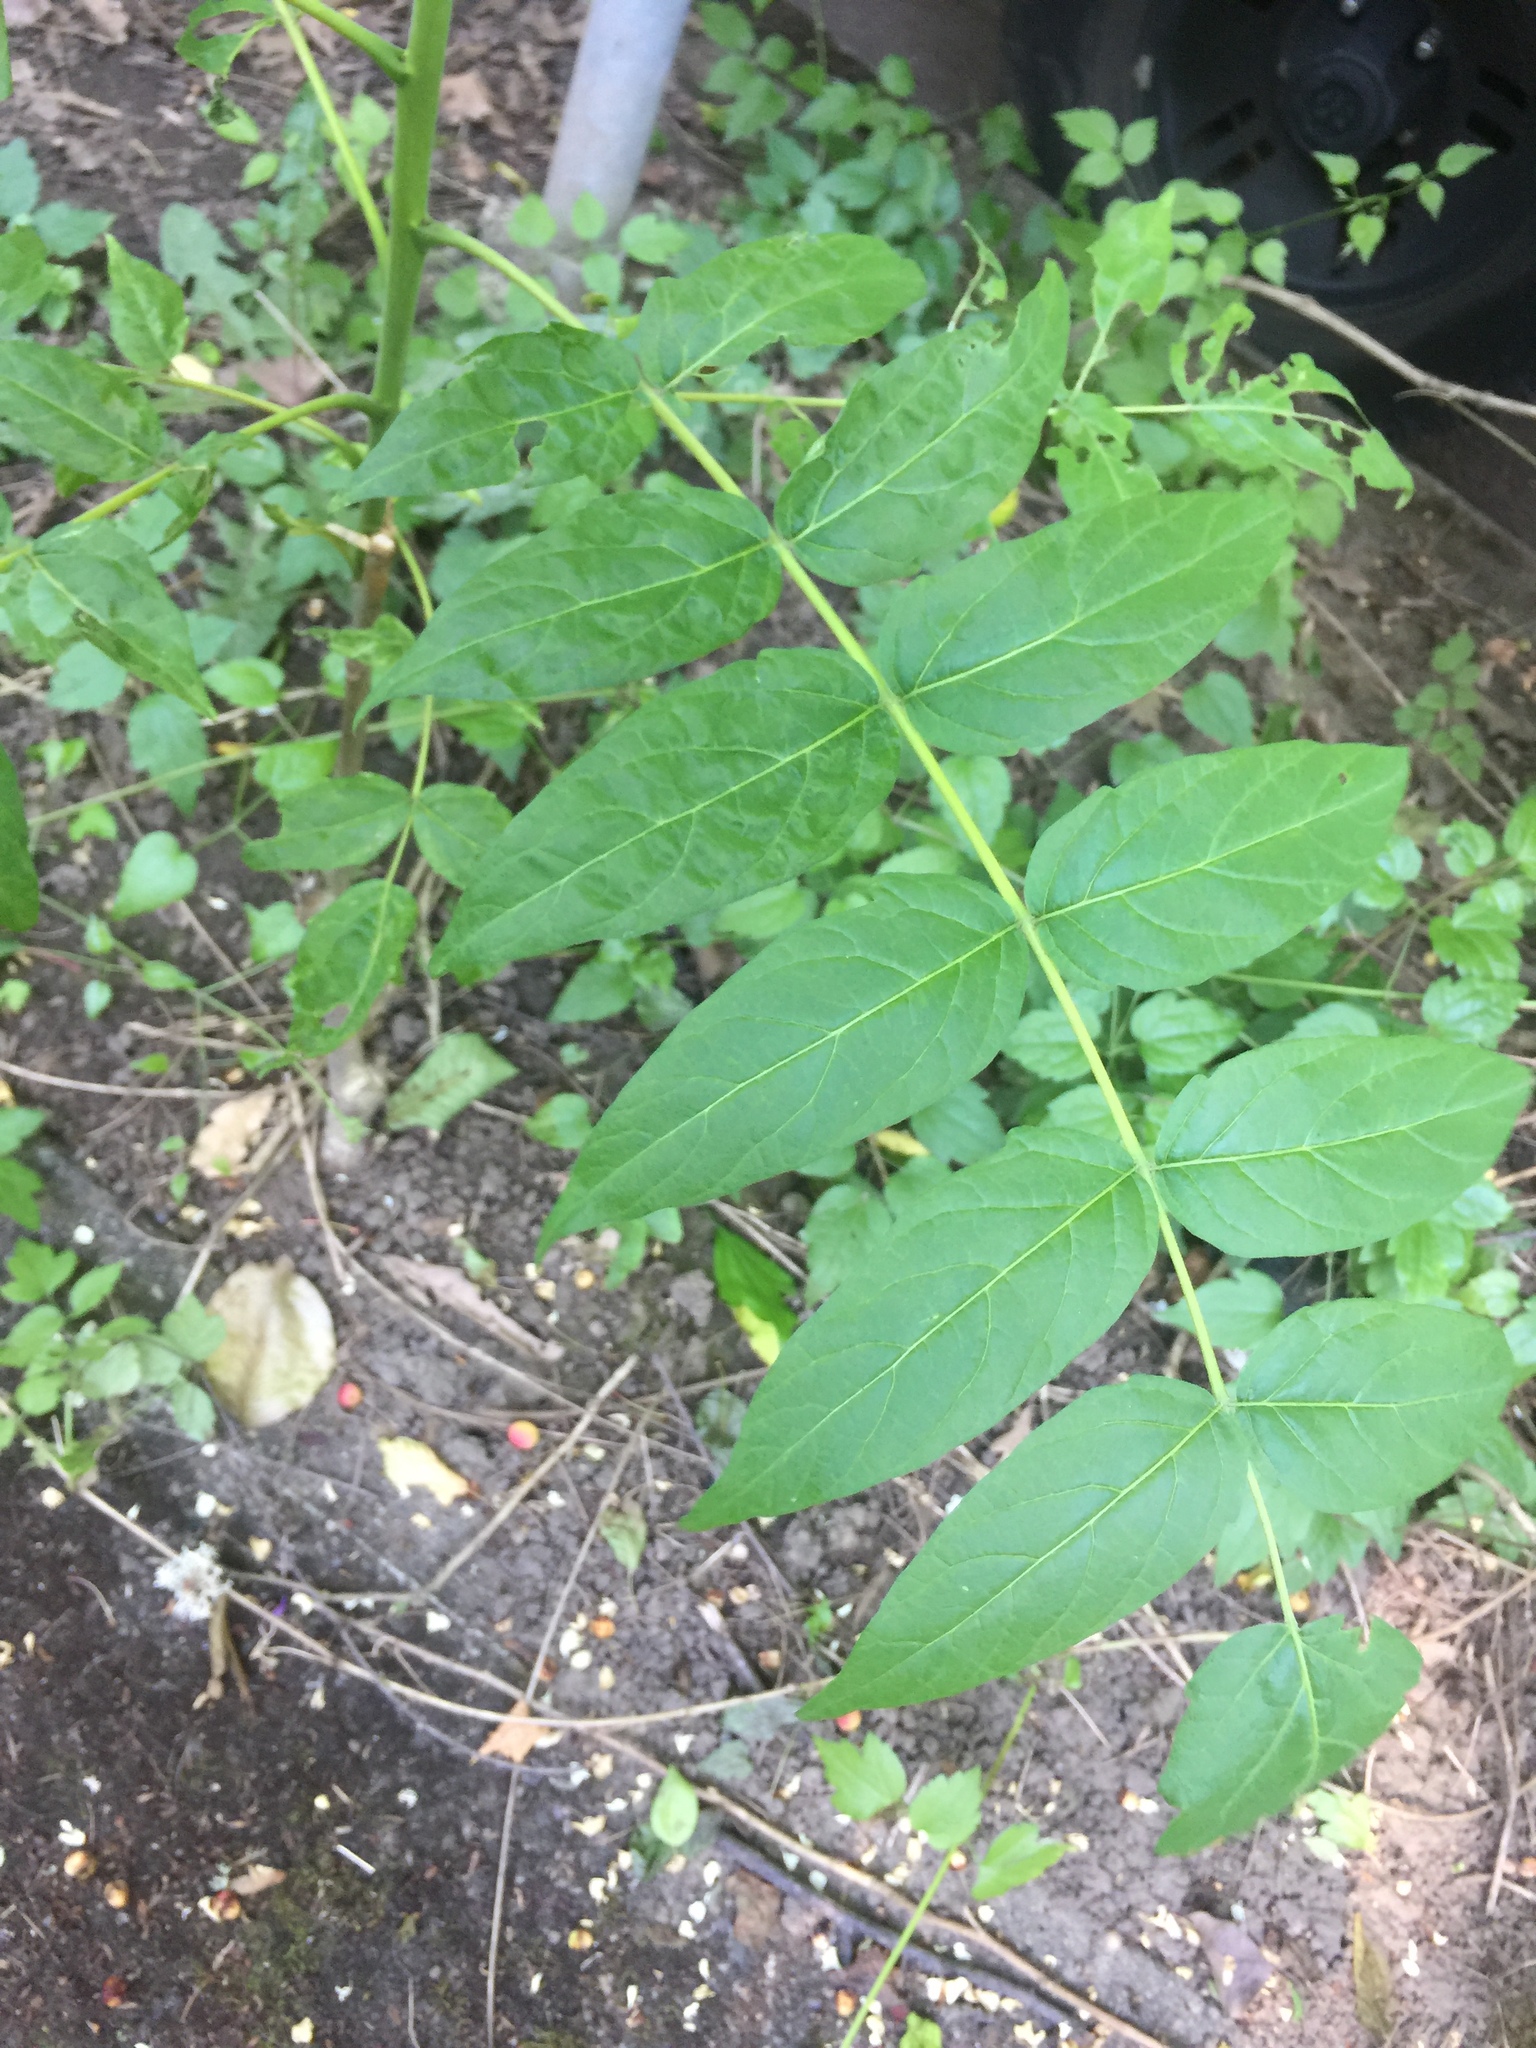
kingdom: Plantae
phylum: Tracheophyta
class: Magnoliopsida
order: Sapindales
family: Simaroubaceae
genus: Ailanthus
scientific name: Ailanthus altissima
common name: Tree-of-heaven
